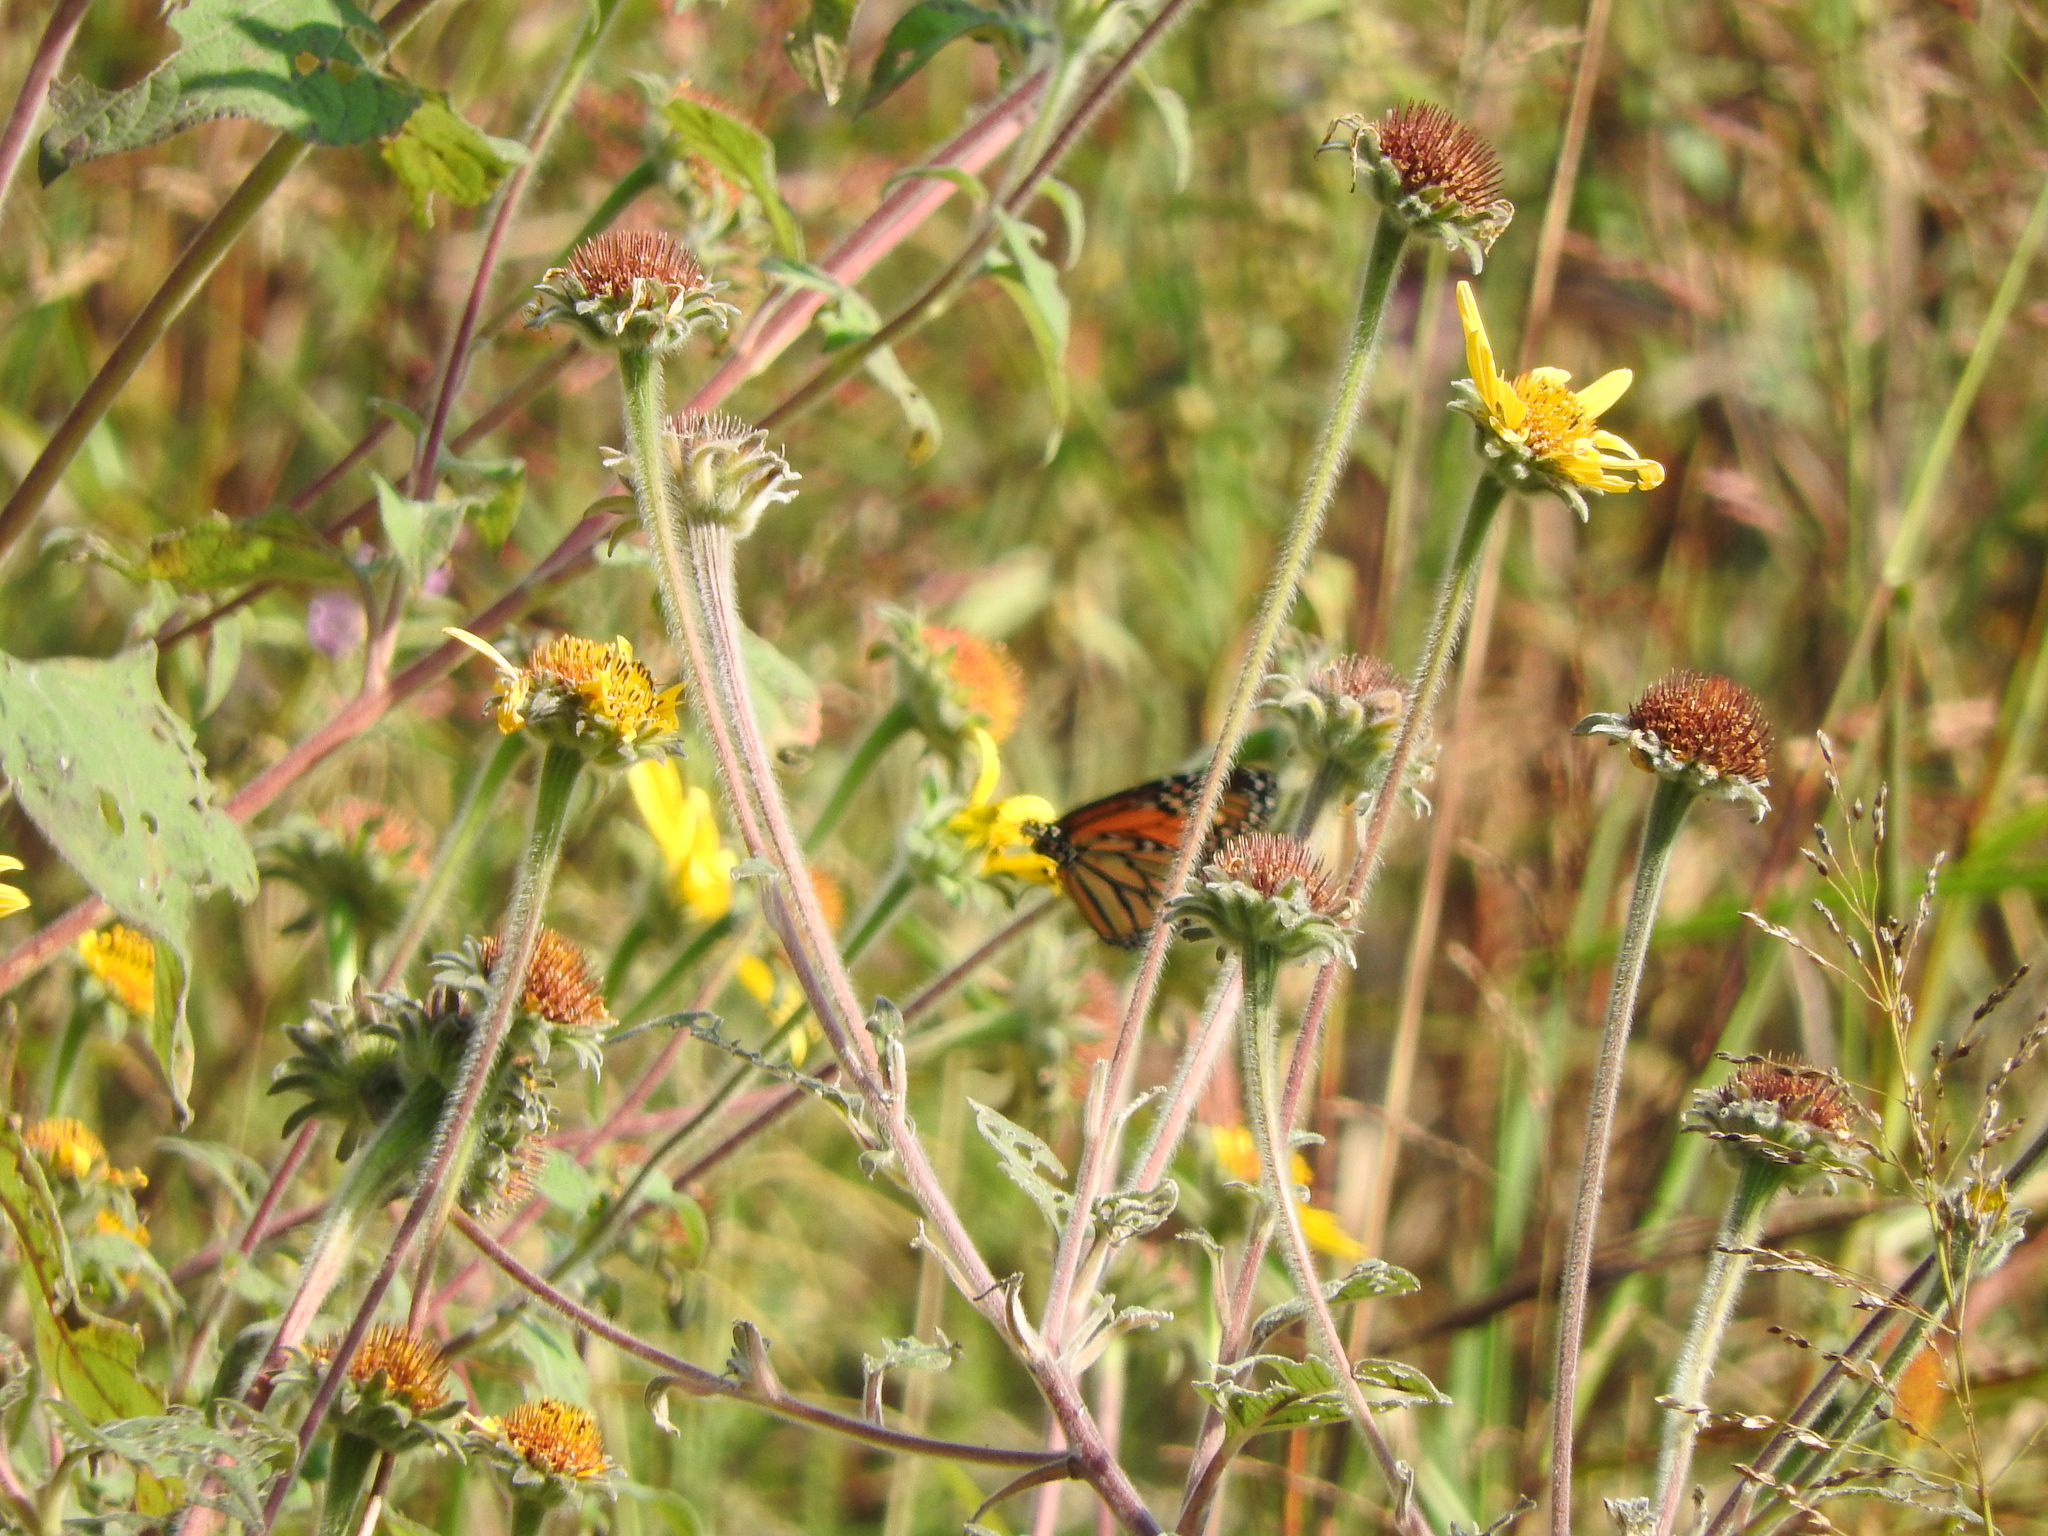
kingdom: Animalia
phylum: Arthropoda
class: Insecta
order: Lepidoptera
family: Nymphalidae
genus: Danaus
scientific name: Danaus plexippus
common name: Monarch
